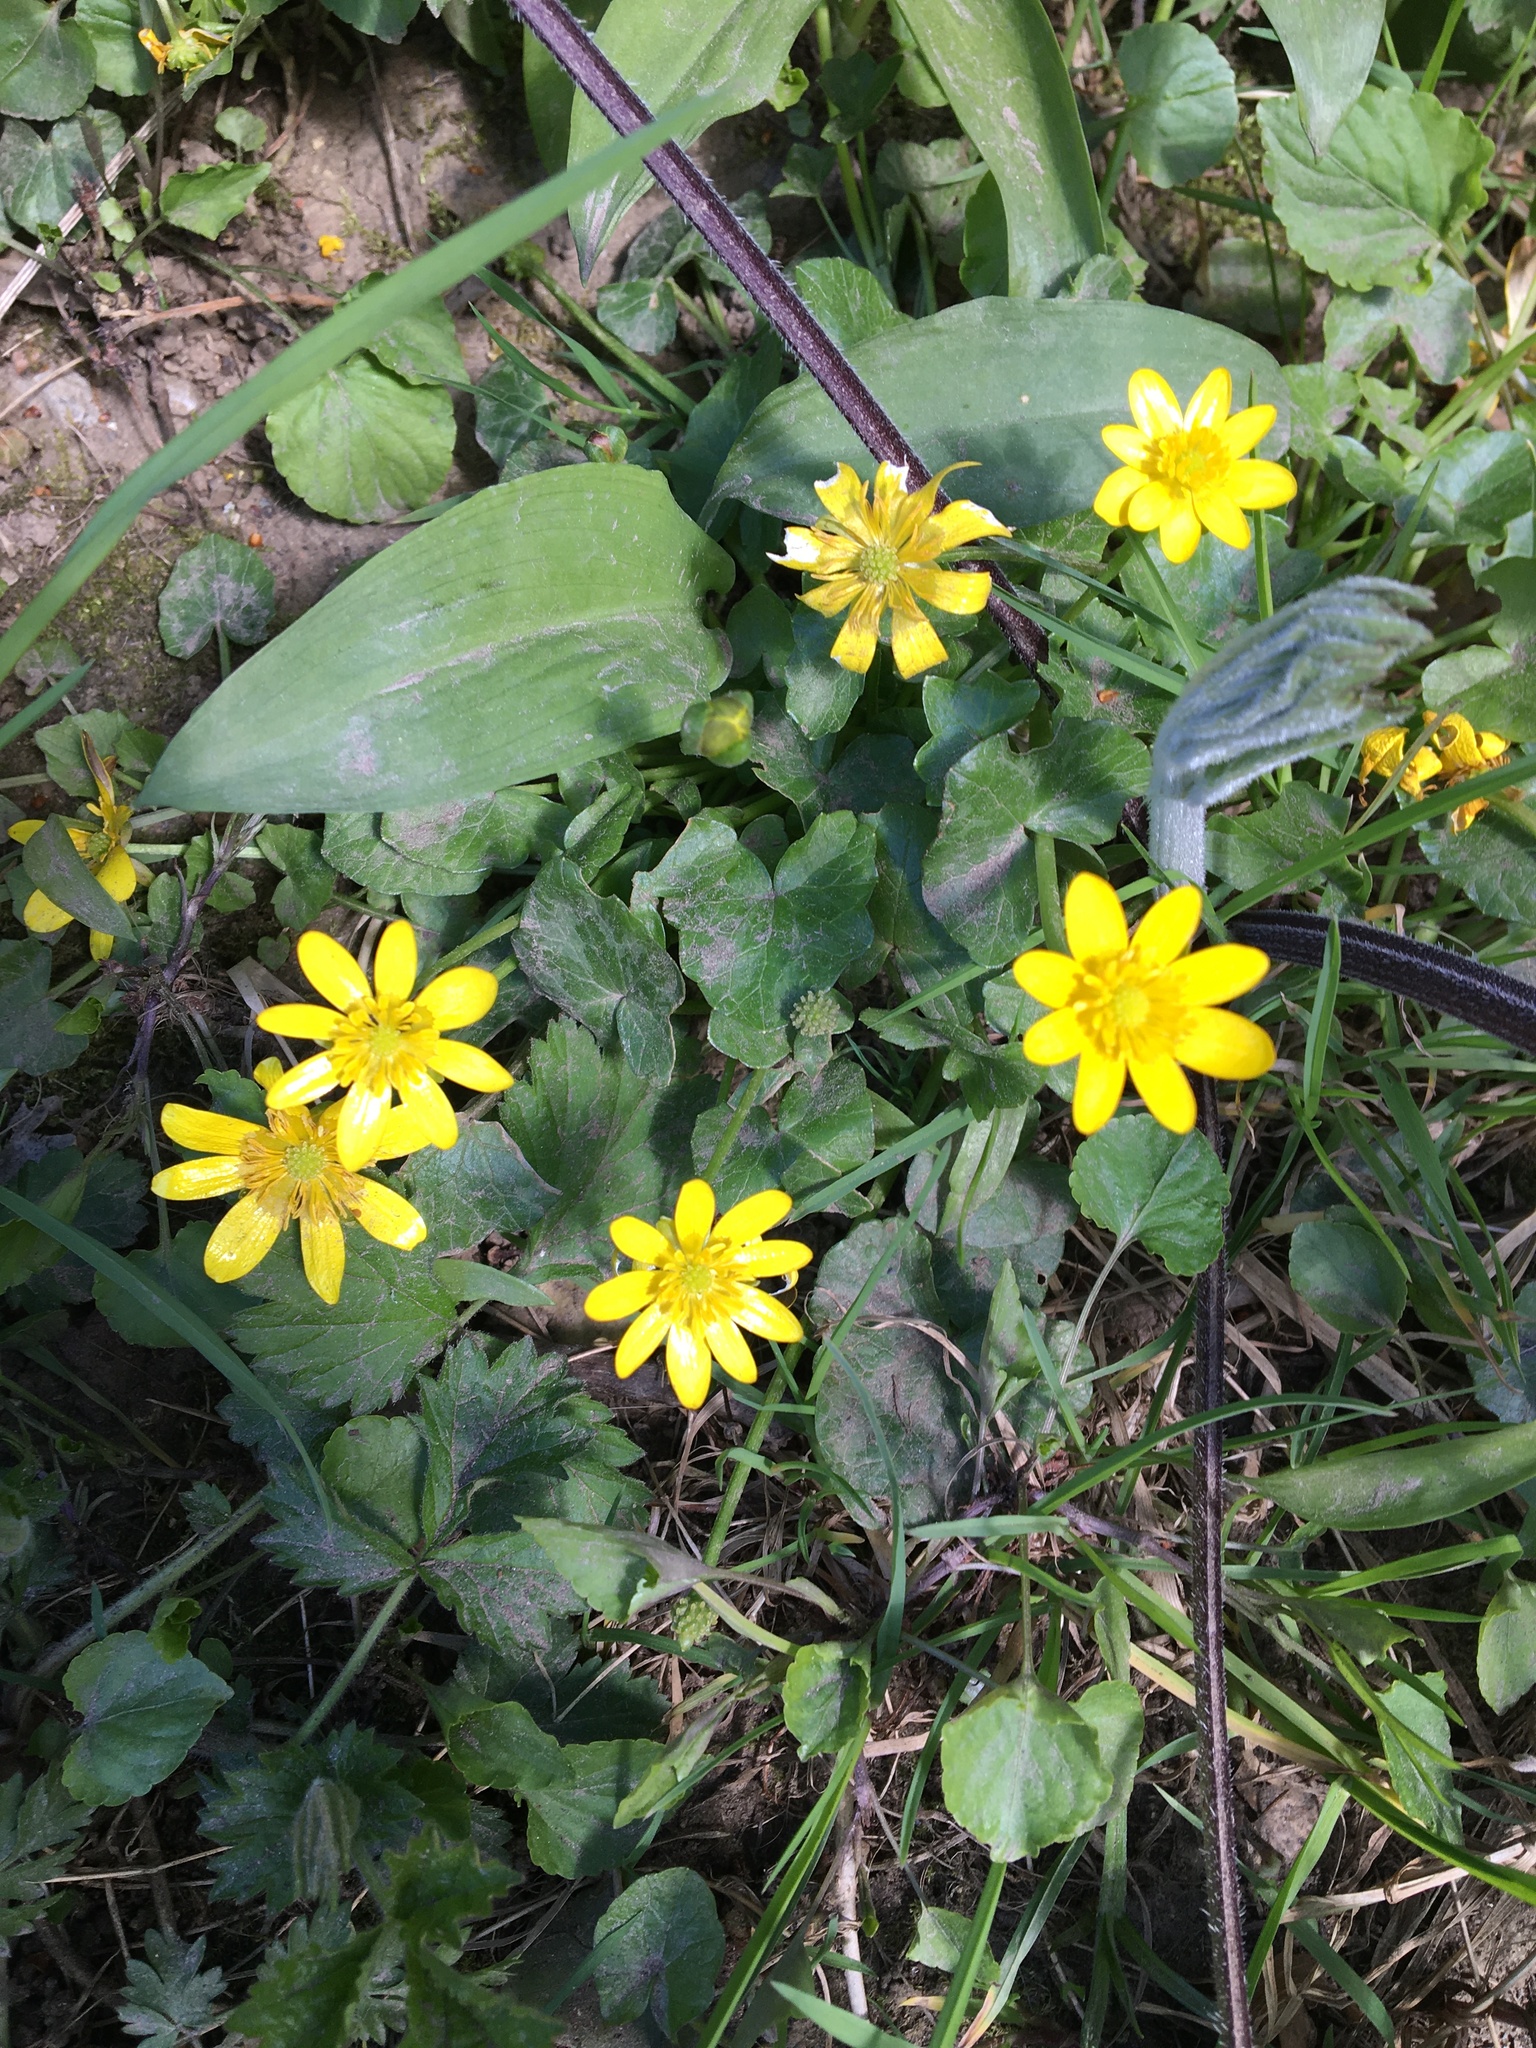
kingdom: Plantae
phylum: Tracheophyta
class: Magnoliopsida
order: Ranunculales
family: Ranunculaceae
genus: Ficaria
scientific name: Ficaria verna
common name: Lesser celandine
